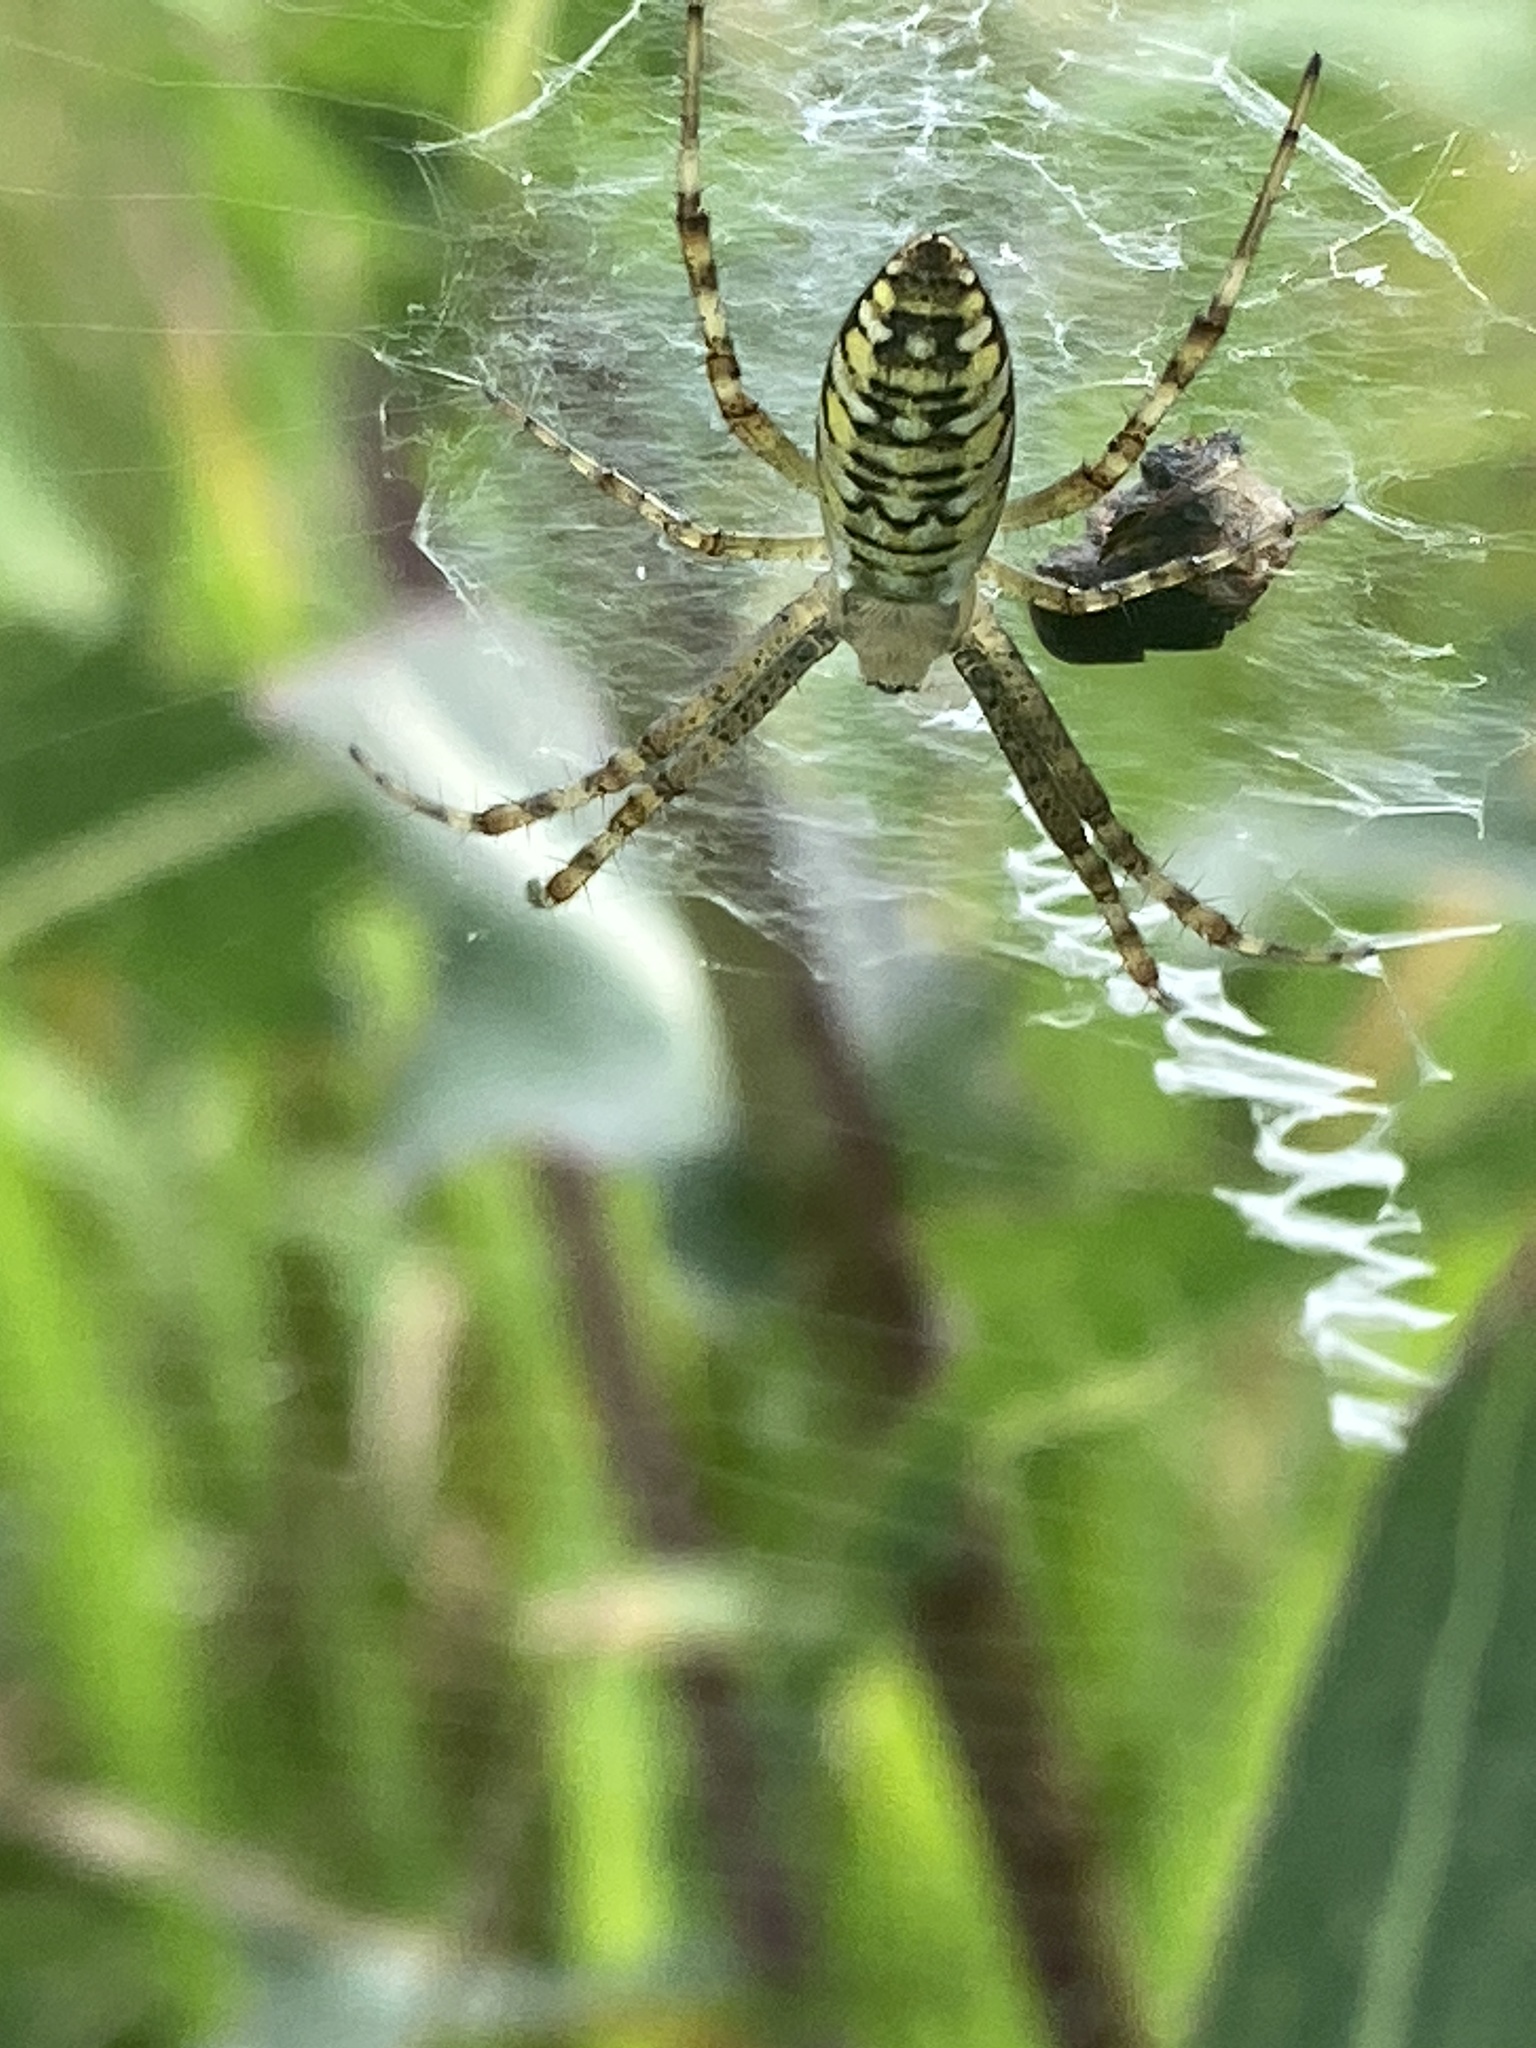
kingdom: Animalia
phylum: Arthropoda
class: Arachnida
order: Araneae
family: Araneidae
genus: Argiope
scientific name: Argiope bruennichi
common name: Wasp spider
